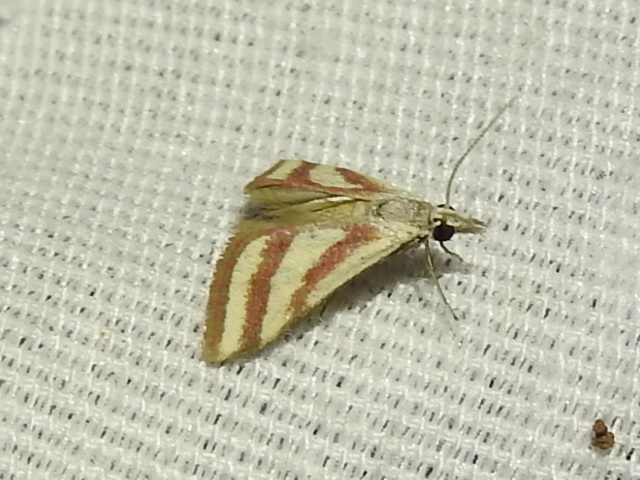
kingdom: Animalia
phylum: Arthropoda
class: Insecta
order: Lepidoptera
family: Crambidae
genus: Microtheoris
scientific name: Microtheoris vibicalis
